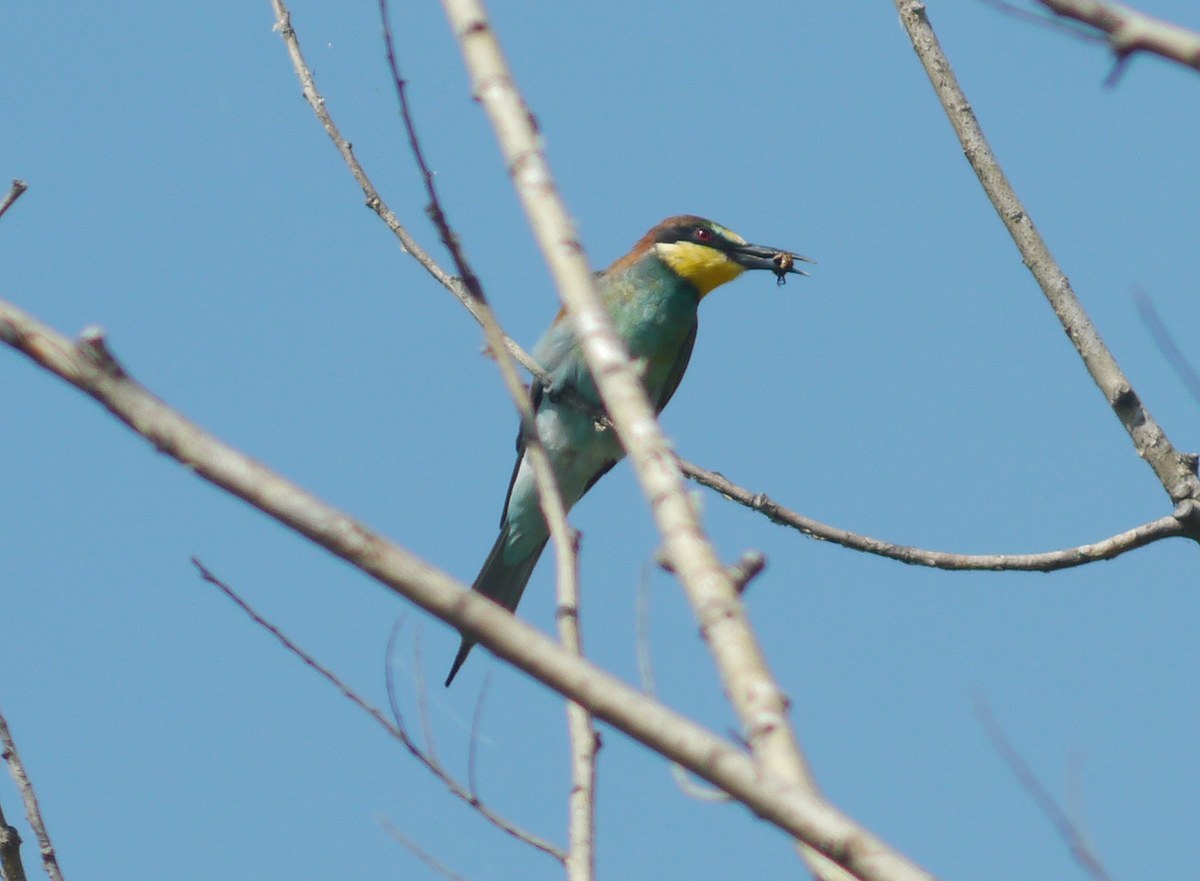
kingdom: Animalia
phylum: Chordata
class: Aves
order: Coraciiformes
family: Meropidae
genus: Merops
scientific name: Merops apiaster
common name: European bee-eater
